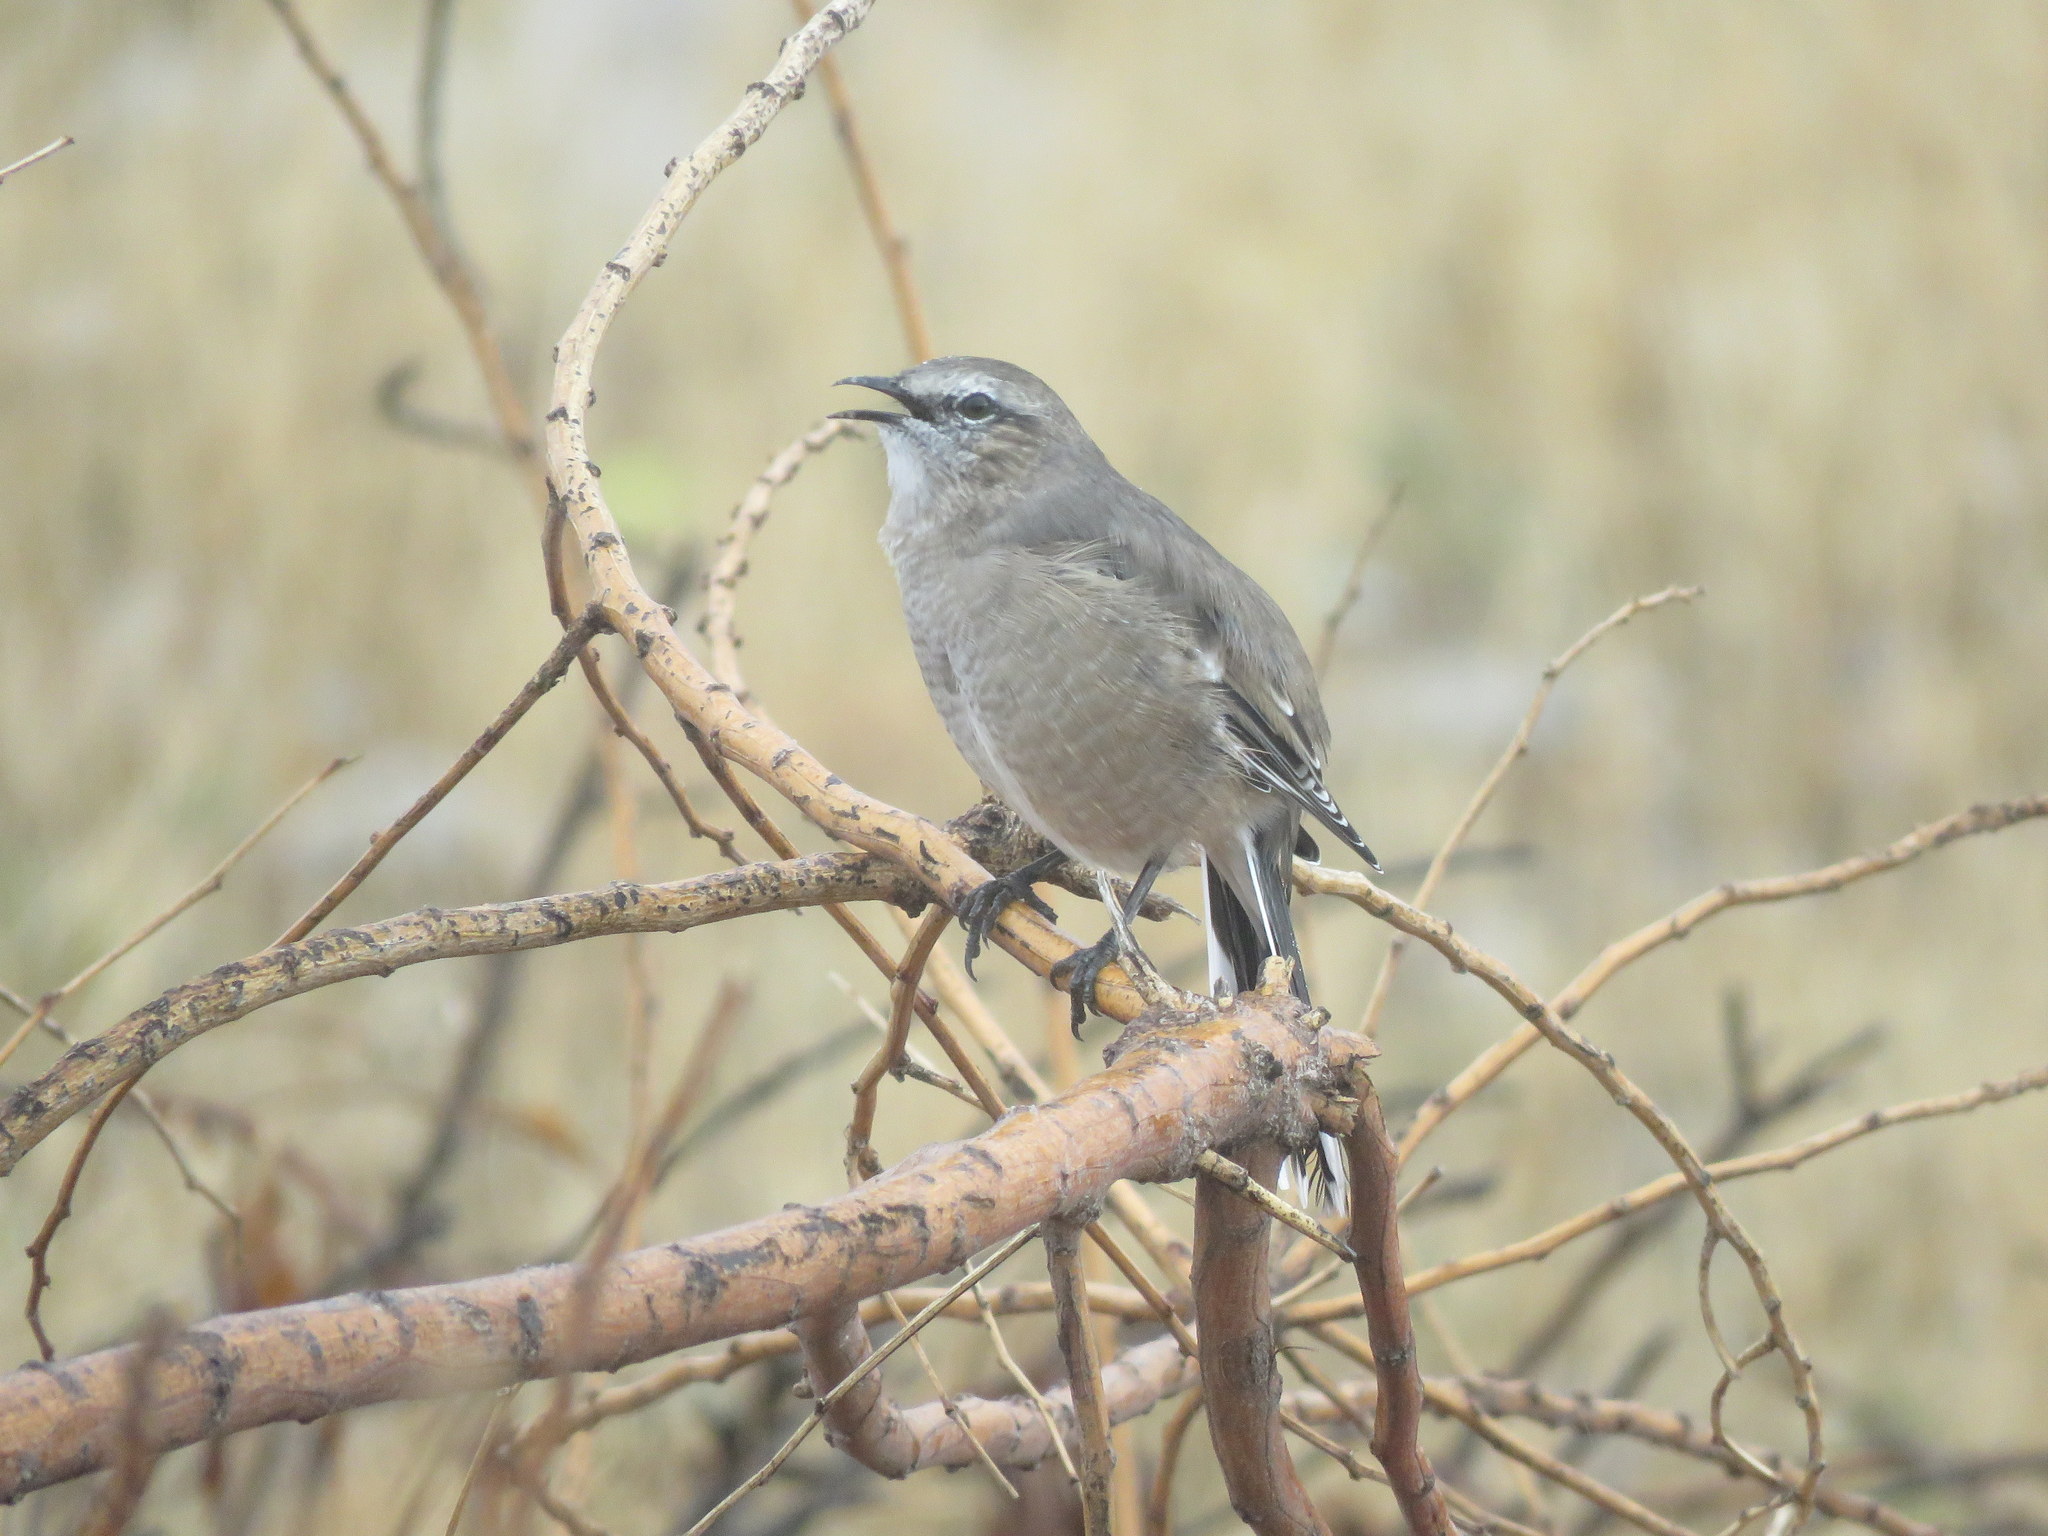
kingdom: Animalia
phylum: Chordata
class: Aves
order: Passeriformes
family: Mimidae
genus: Mimus
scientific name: Mimus patagonicus
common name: Patagonian mockingbird
